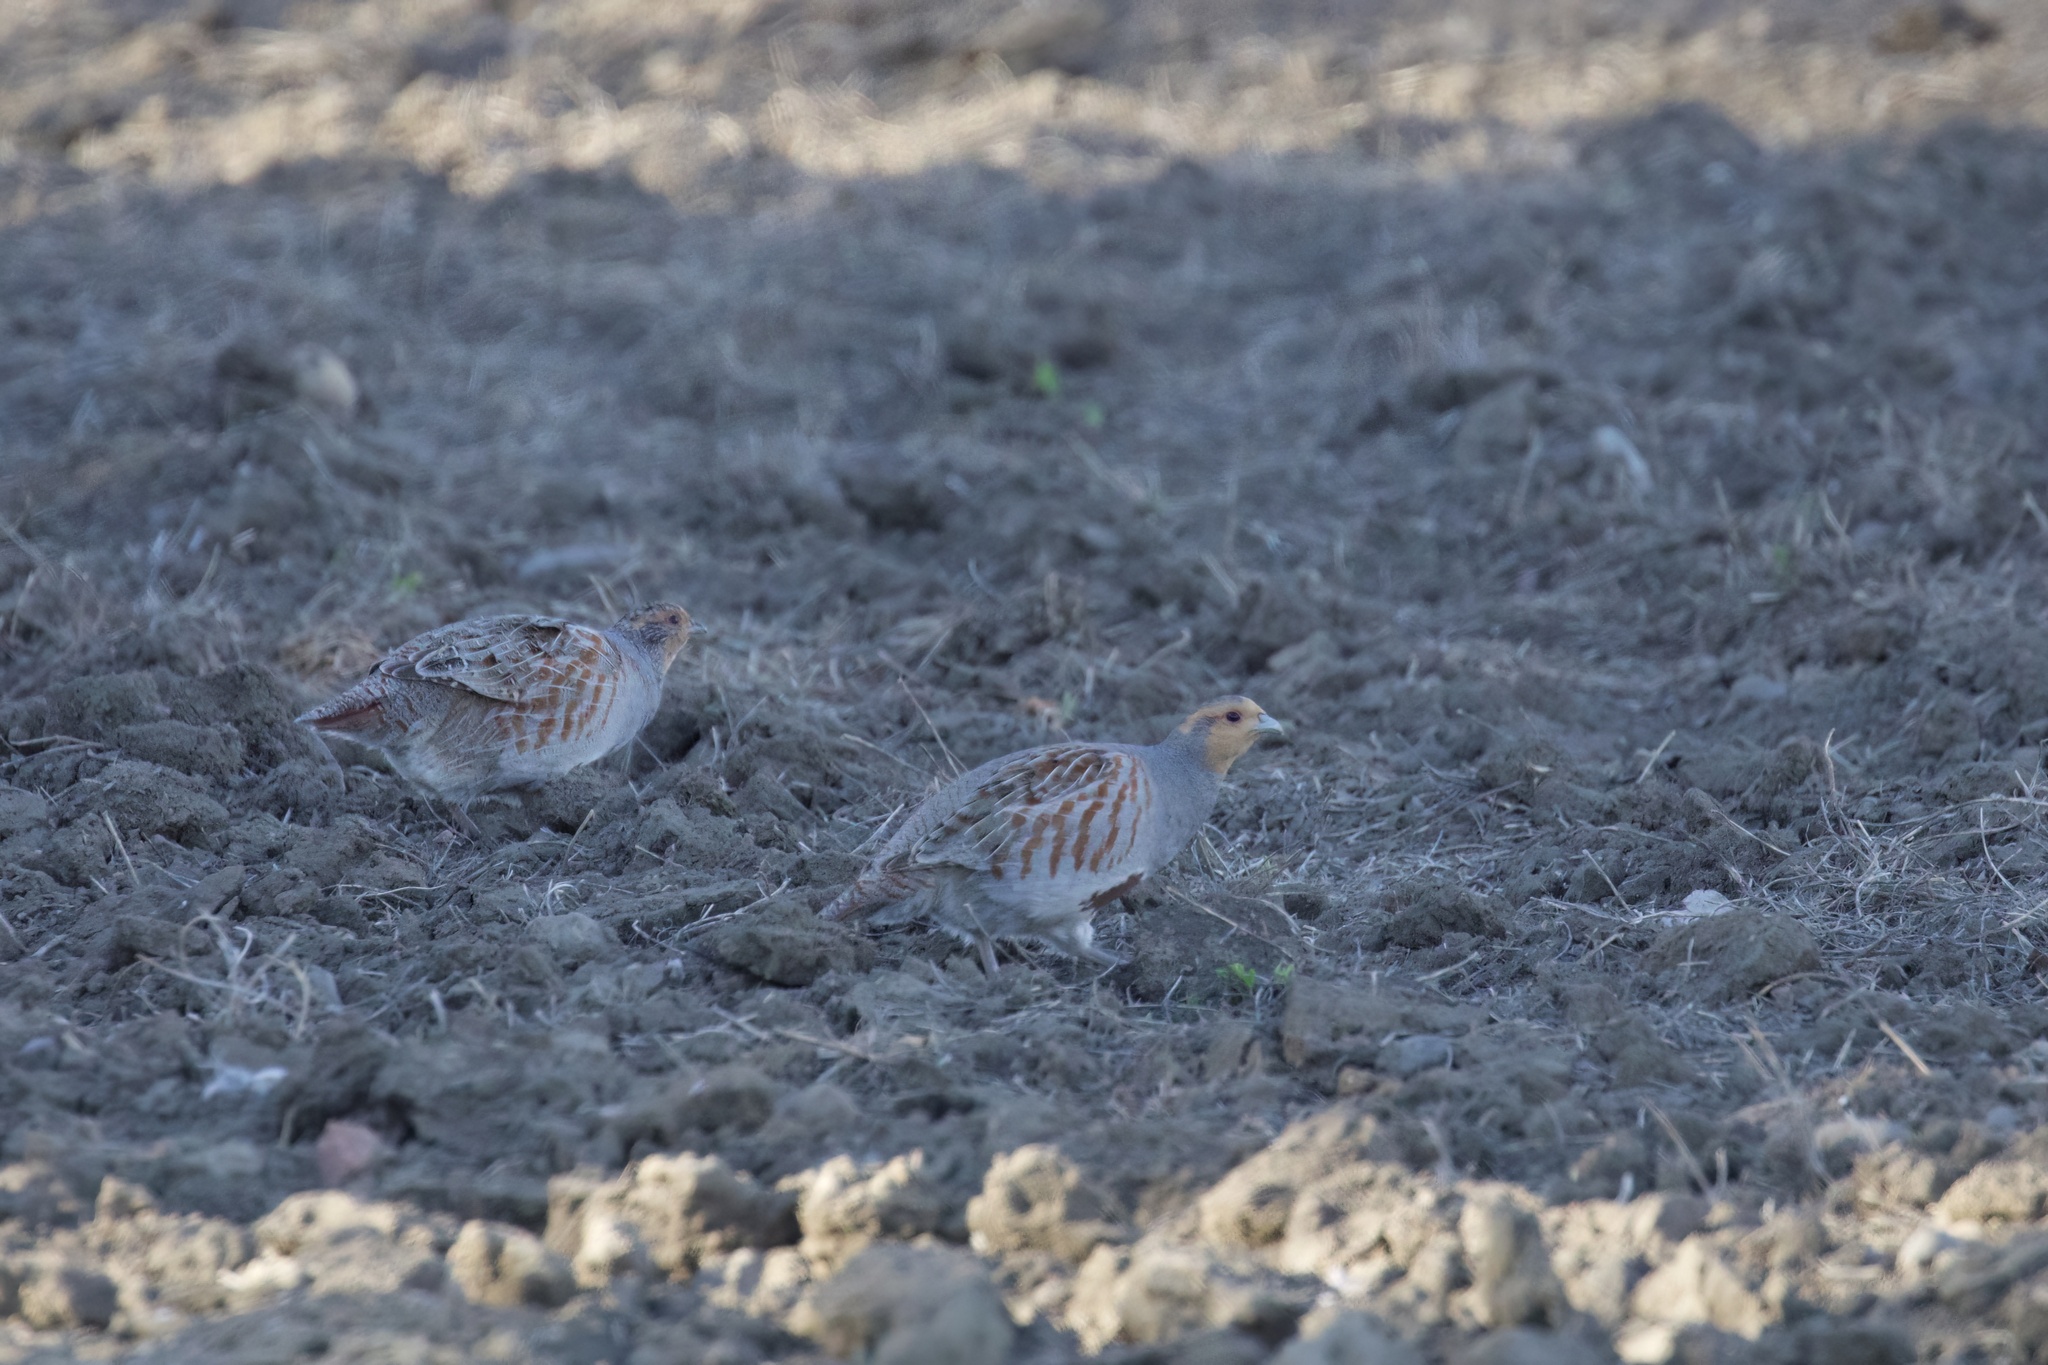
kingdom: Animalia
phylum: Chordata
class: Aves
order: Galliformes
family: Phasianidae
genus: Perdix
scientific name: Perdix perdix
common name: Grey partridge
